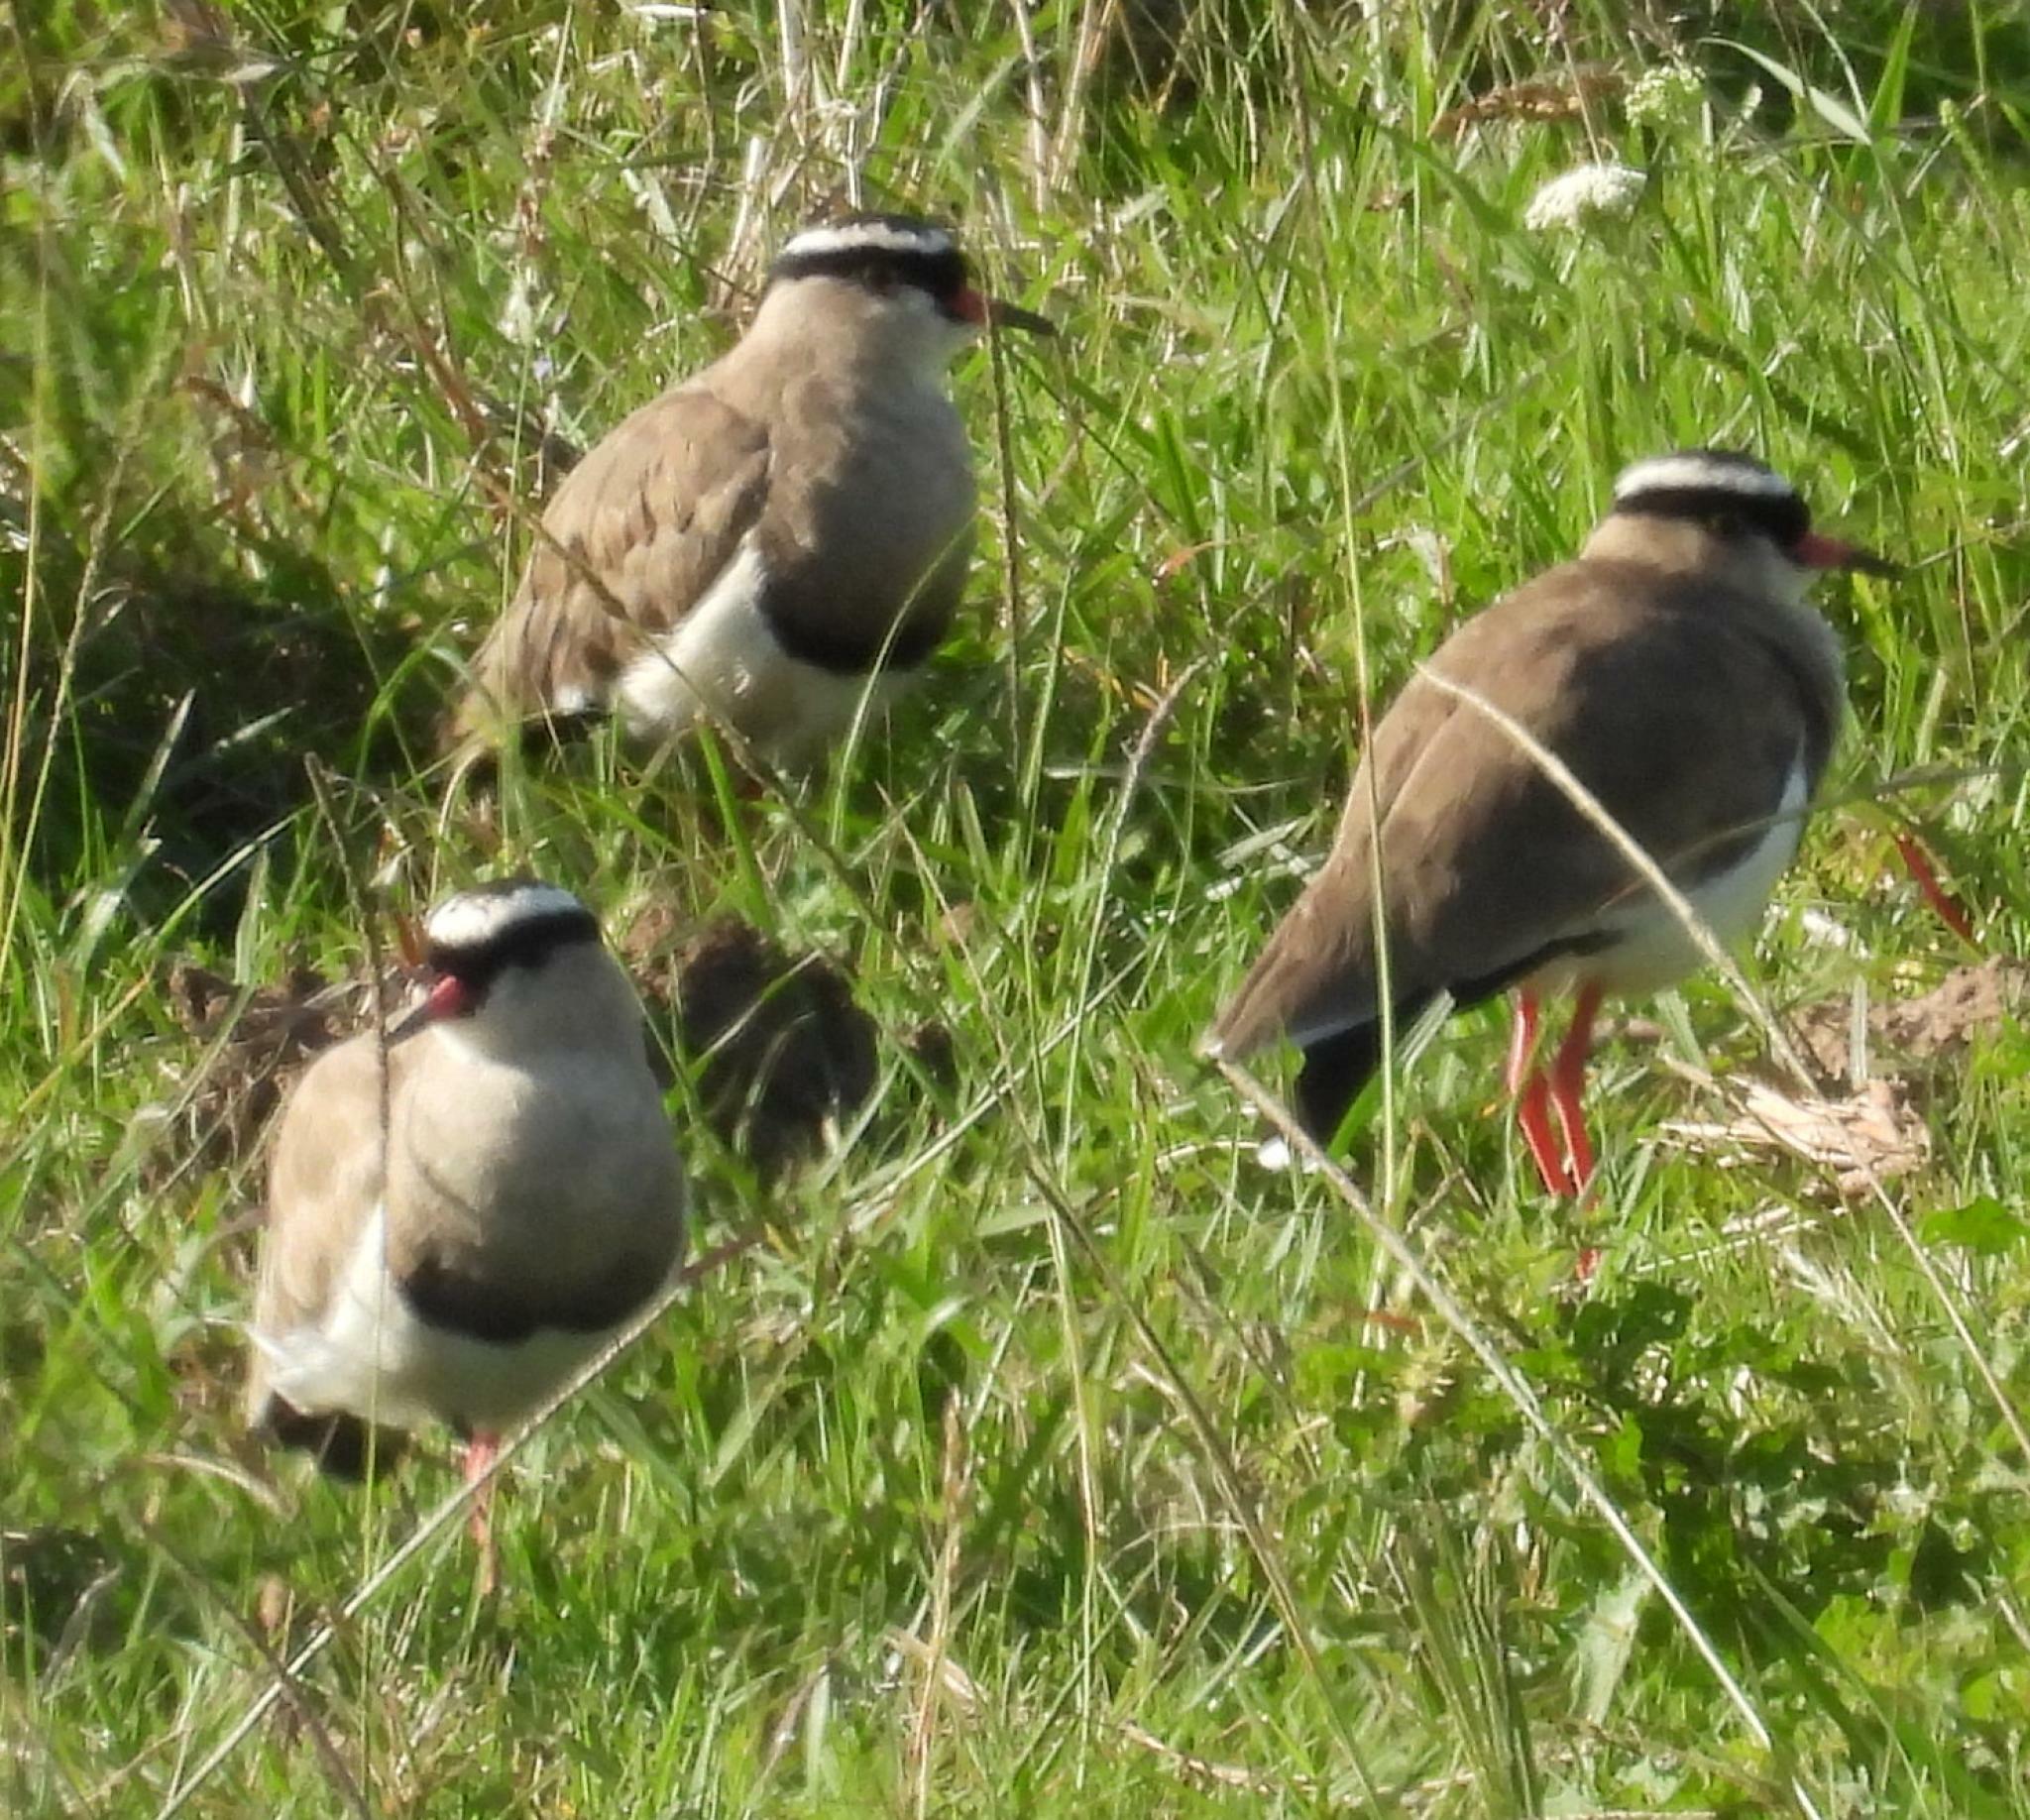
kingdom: Animalia
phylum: Chordata
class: Aves
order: Charadriiformes
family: Charadriidae
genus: Vanellus
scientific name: Vanellus coronatus
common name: Crowned lapwing
